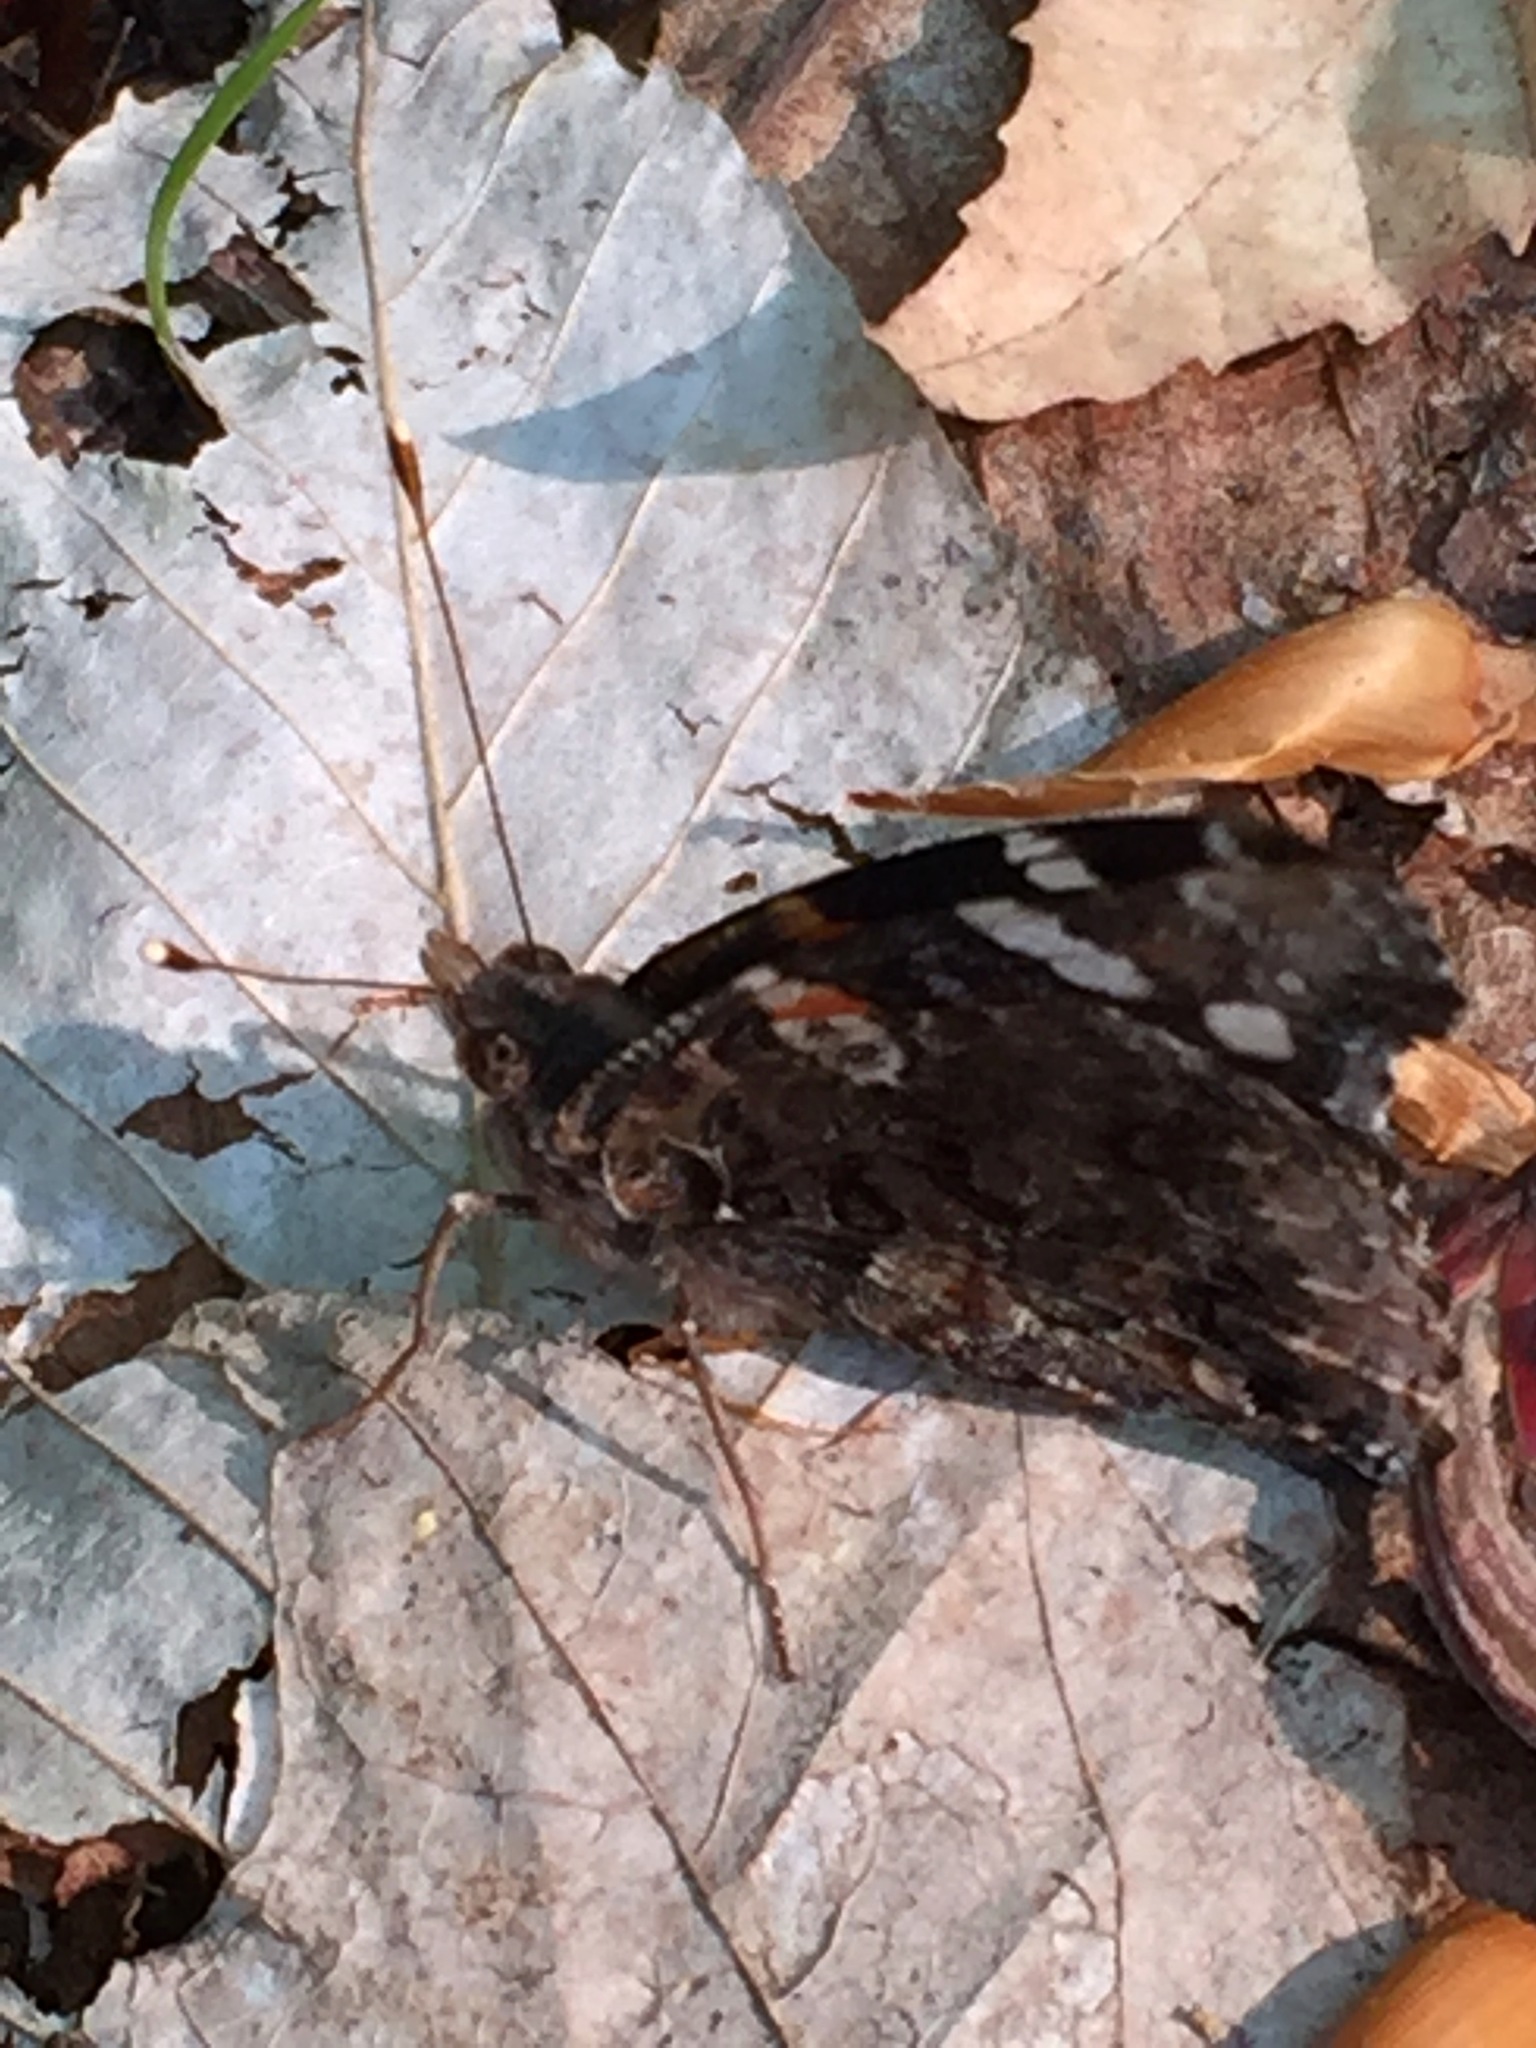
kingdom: Animalia
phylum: Arthropoda
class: Insecta
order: Lepidoptera
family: Nymphalidae
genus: Vanessa
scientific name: Vanessa atalanta
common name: Red admiral
